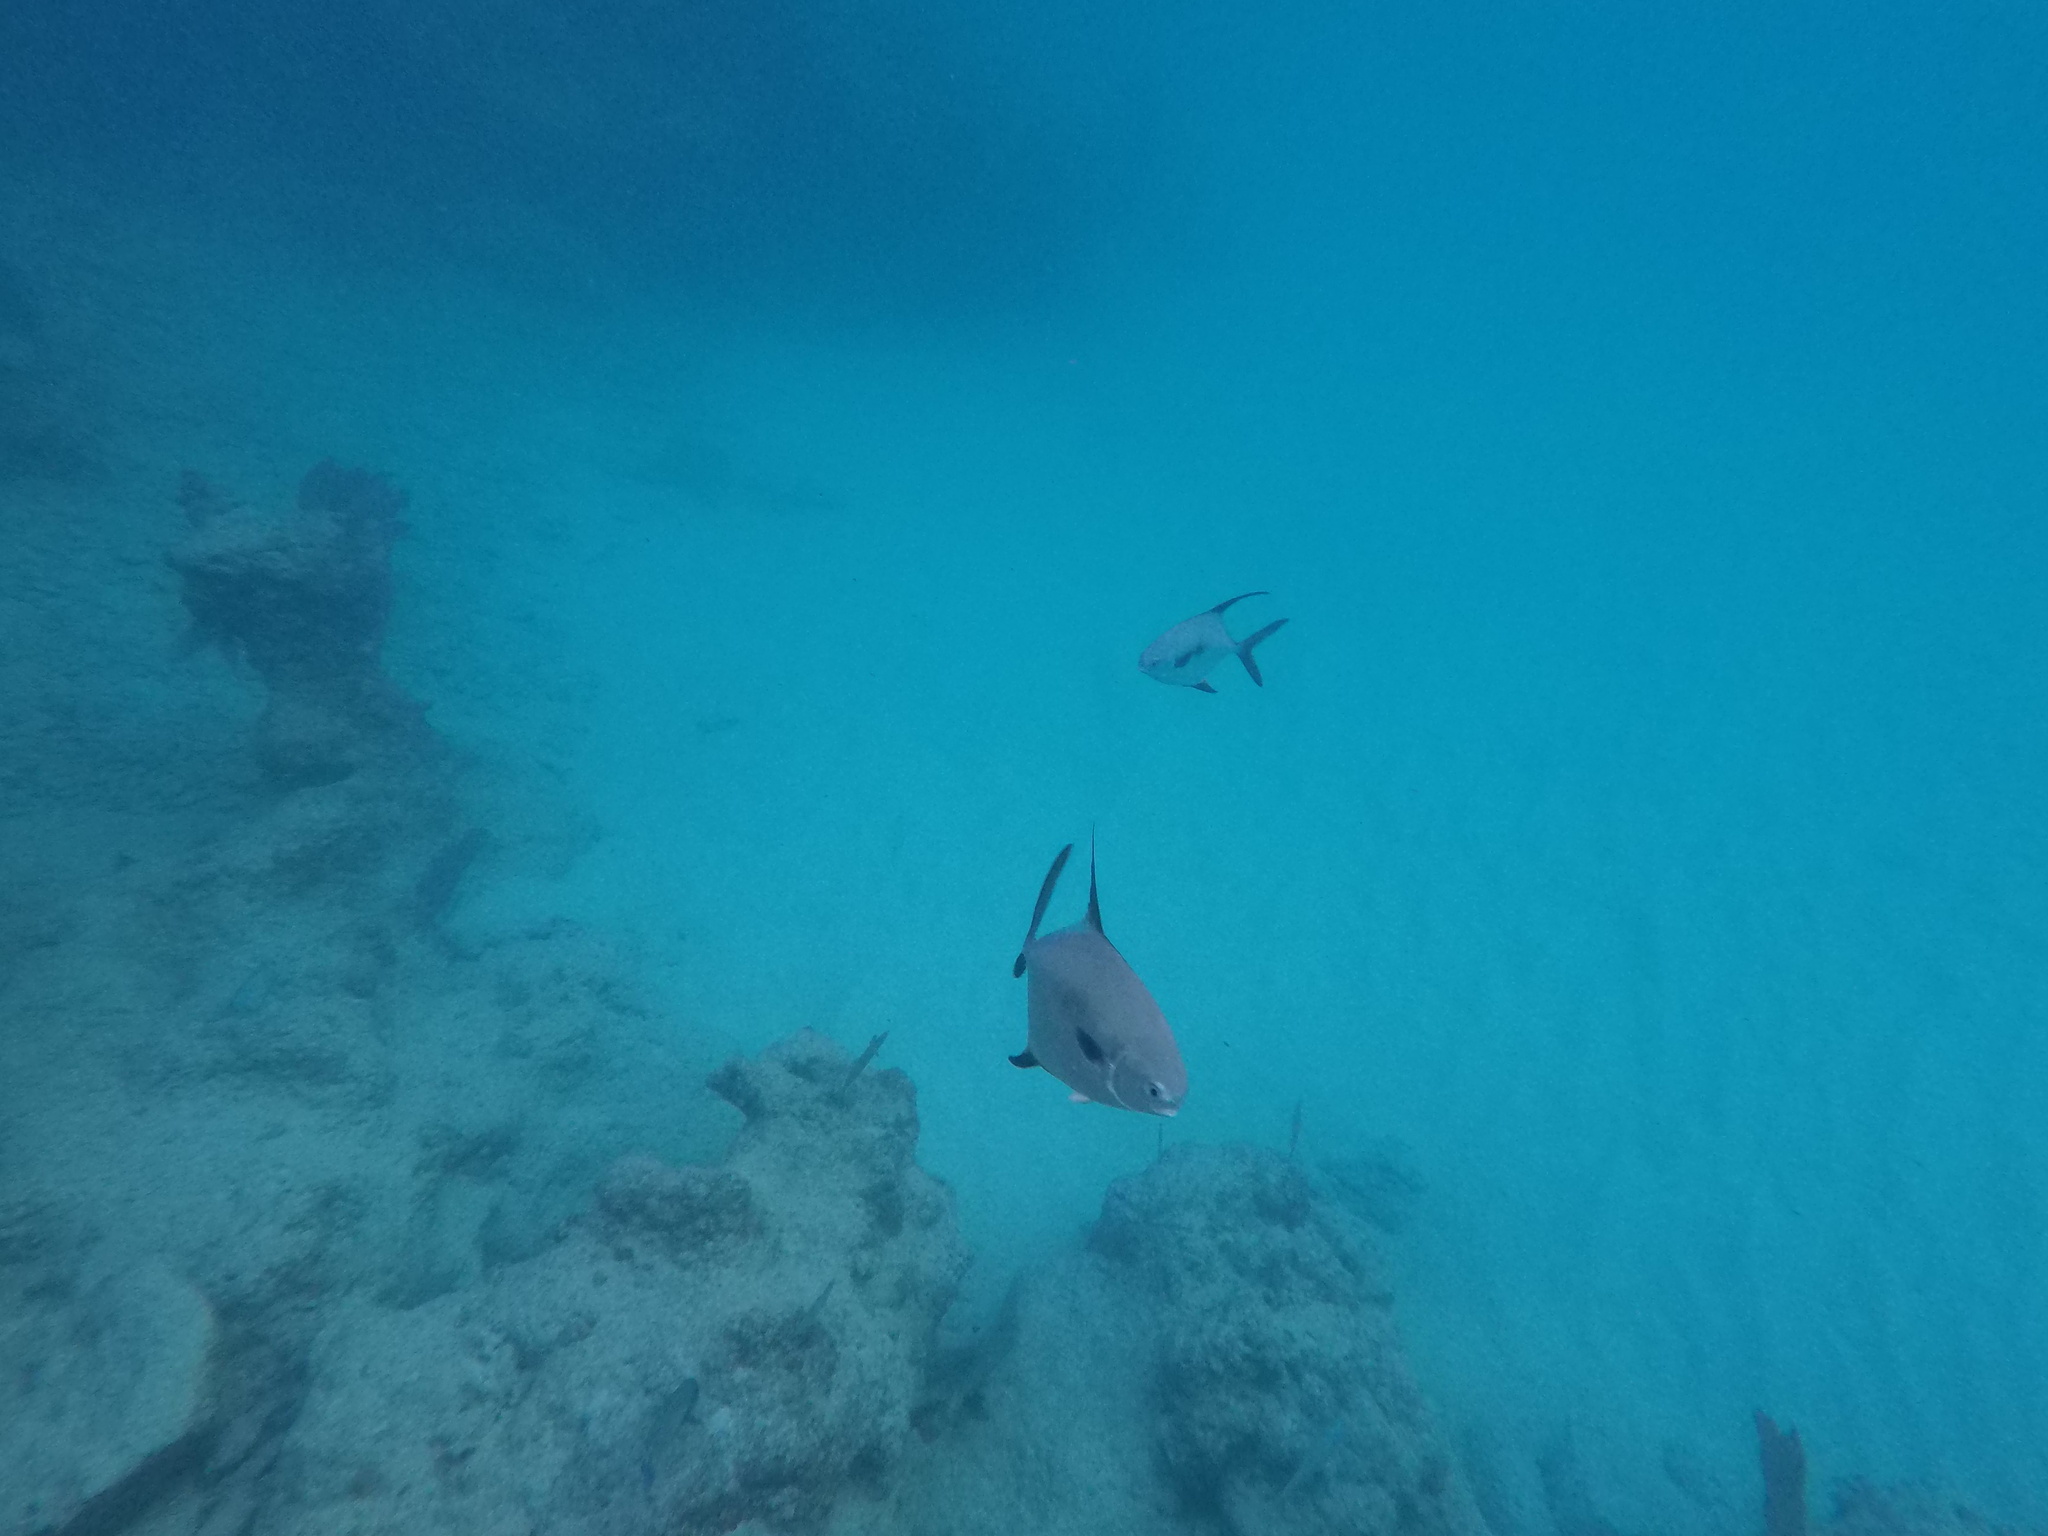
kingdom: Animalia
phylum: Chordata
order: Perciformes
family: Carangidae
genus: Trachinotus
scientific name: Trachinotus goodei
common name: Palometa
